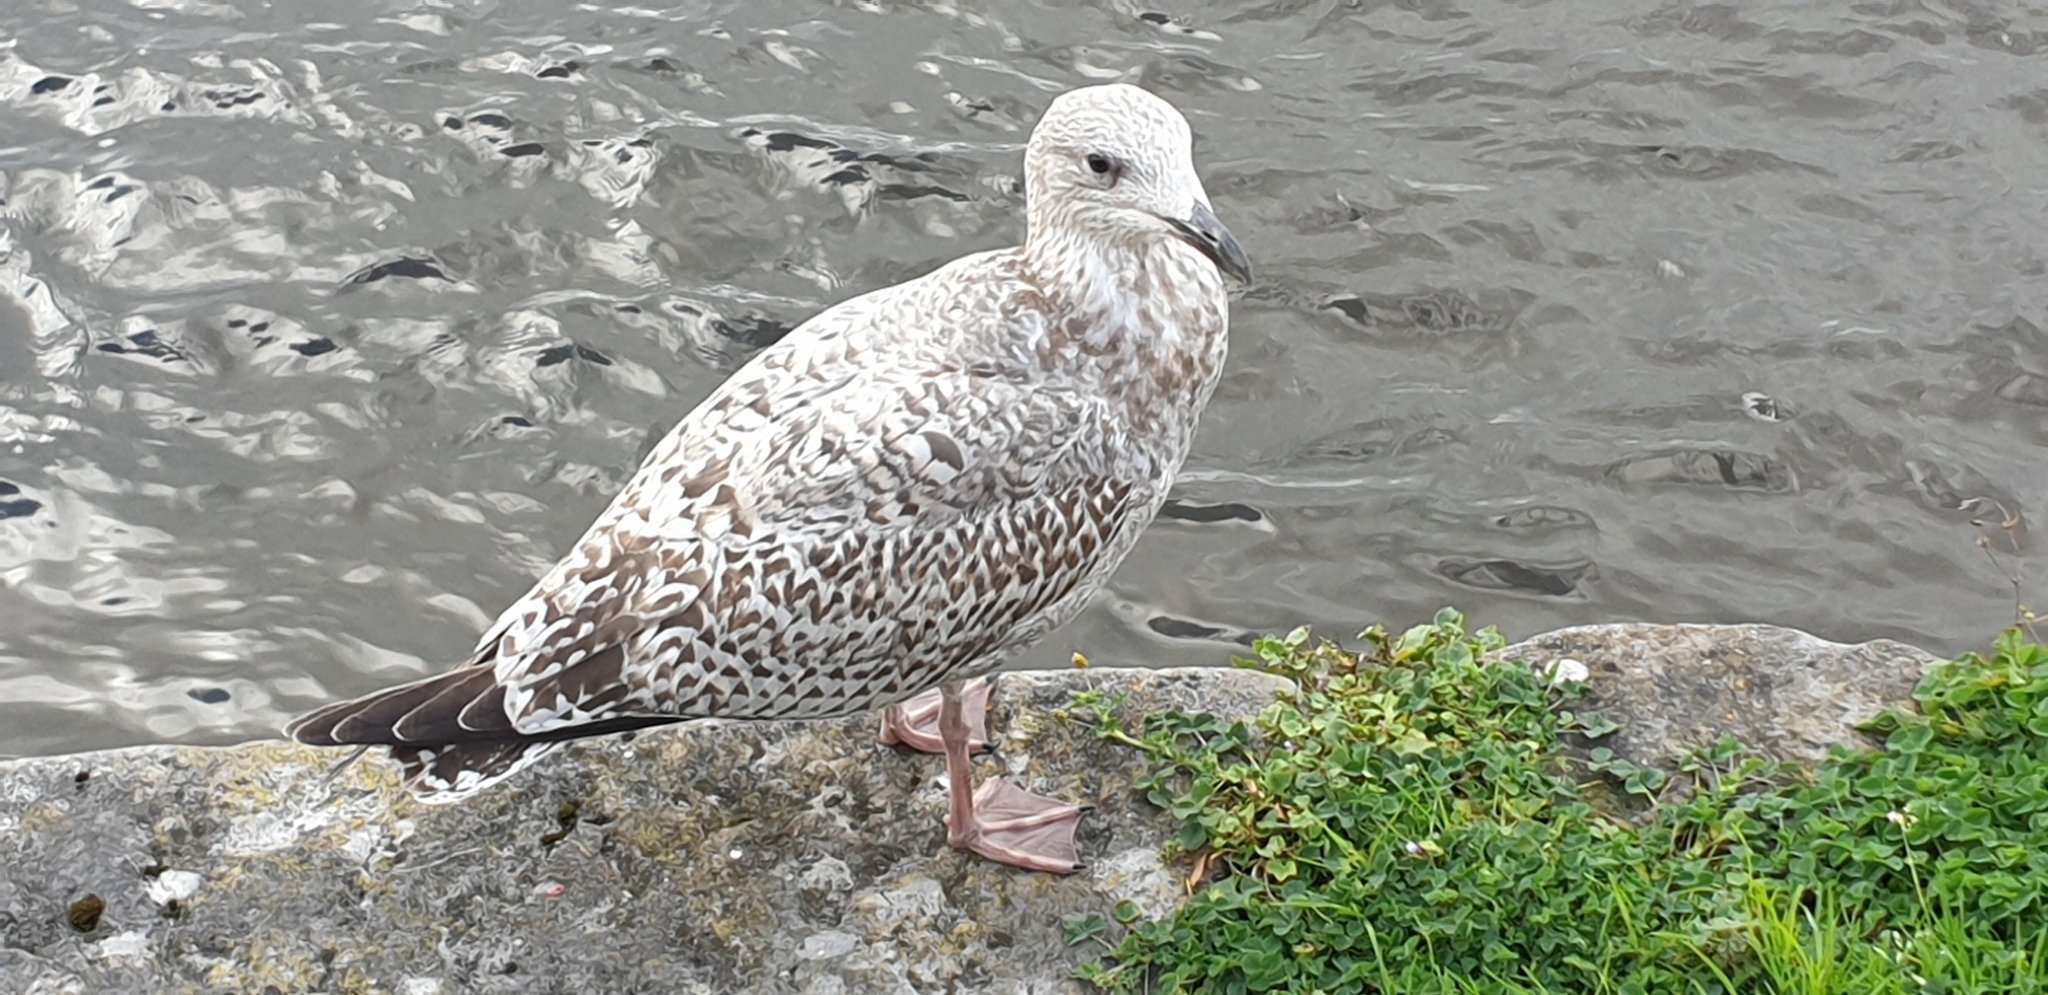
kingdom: Animalia
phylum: Chordata
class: Aves
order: Charadriiformes
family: Laridae
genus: Larus
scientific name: Larus argentatus
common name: Herring gull
